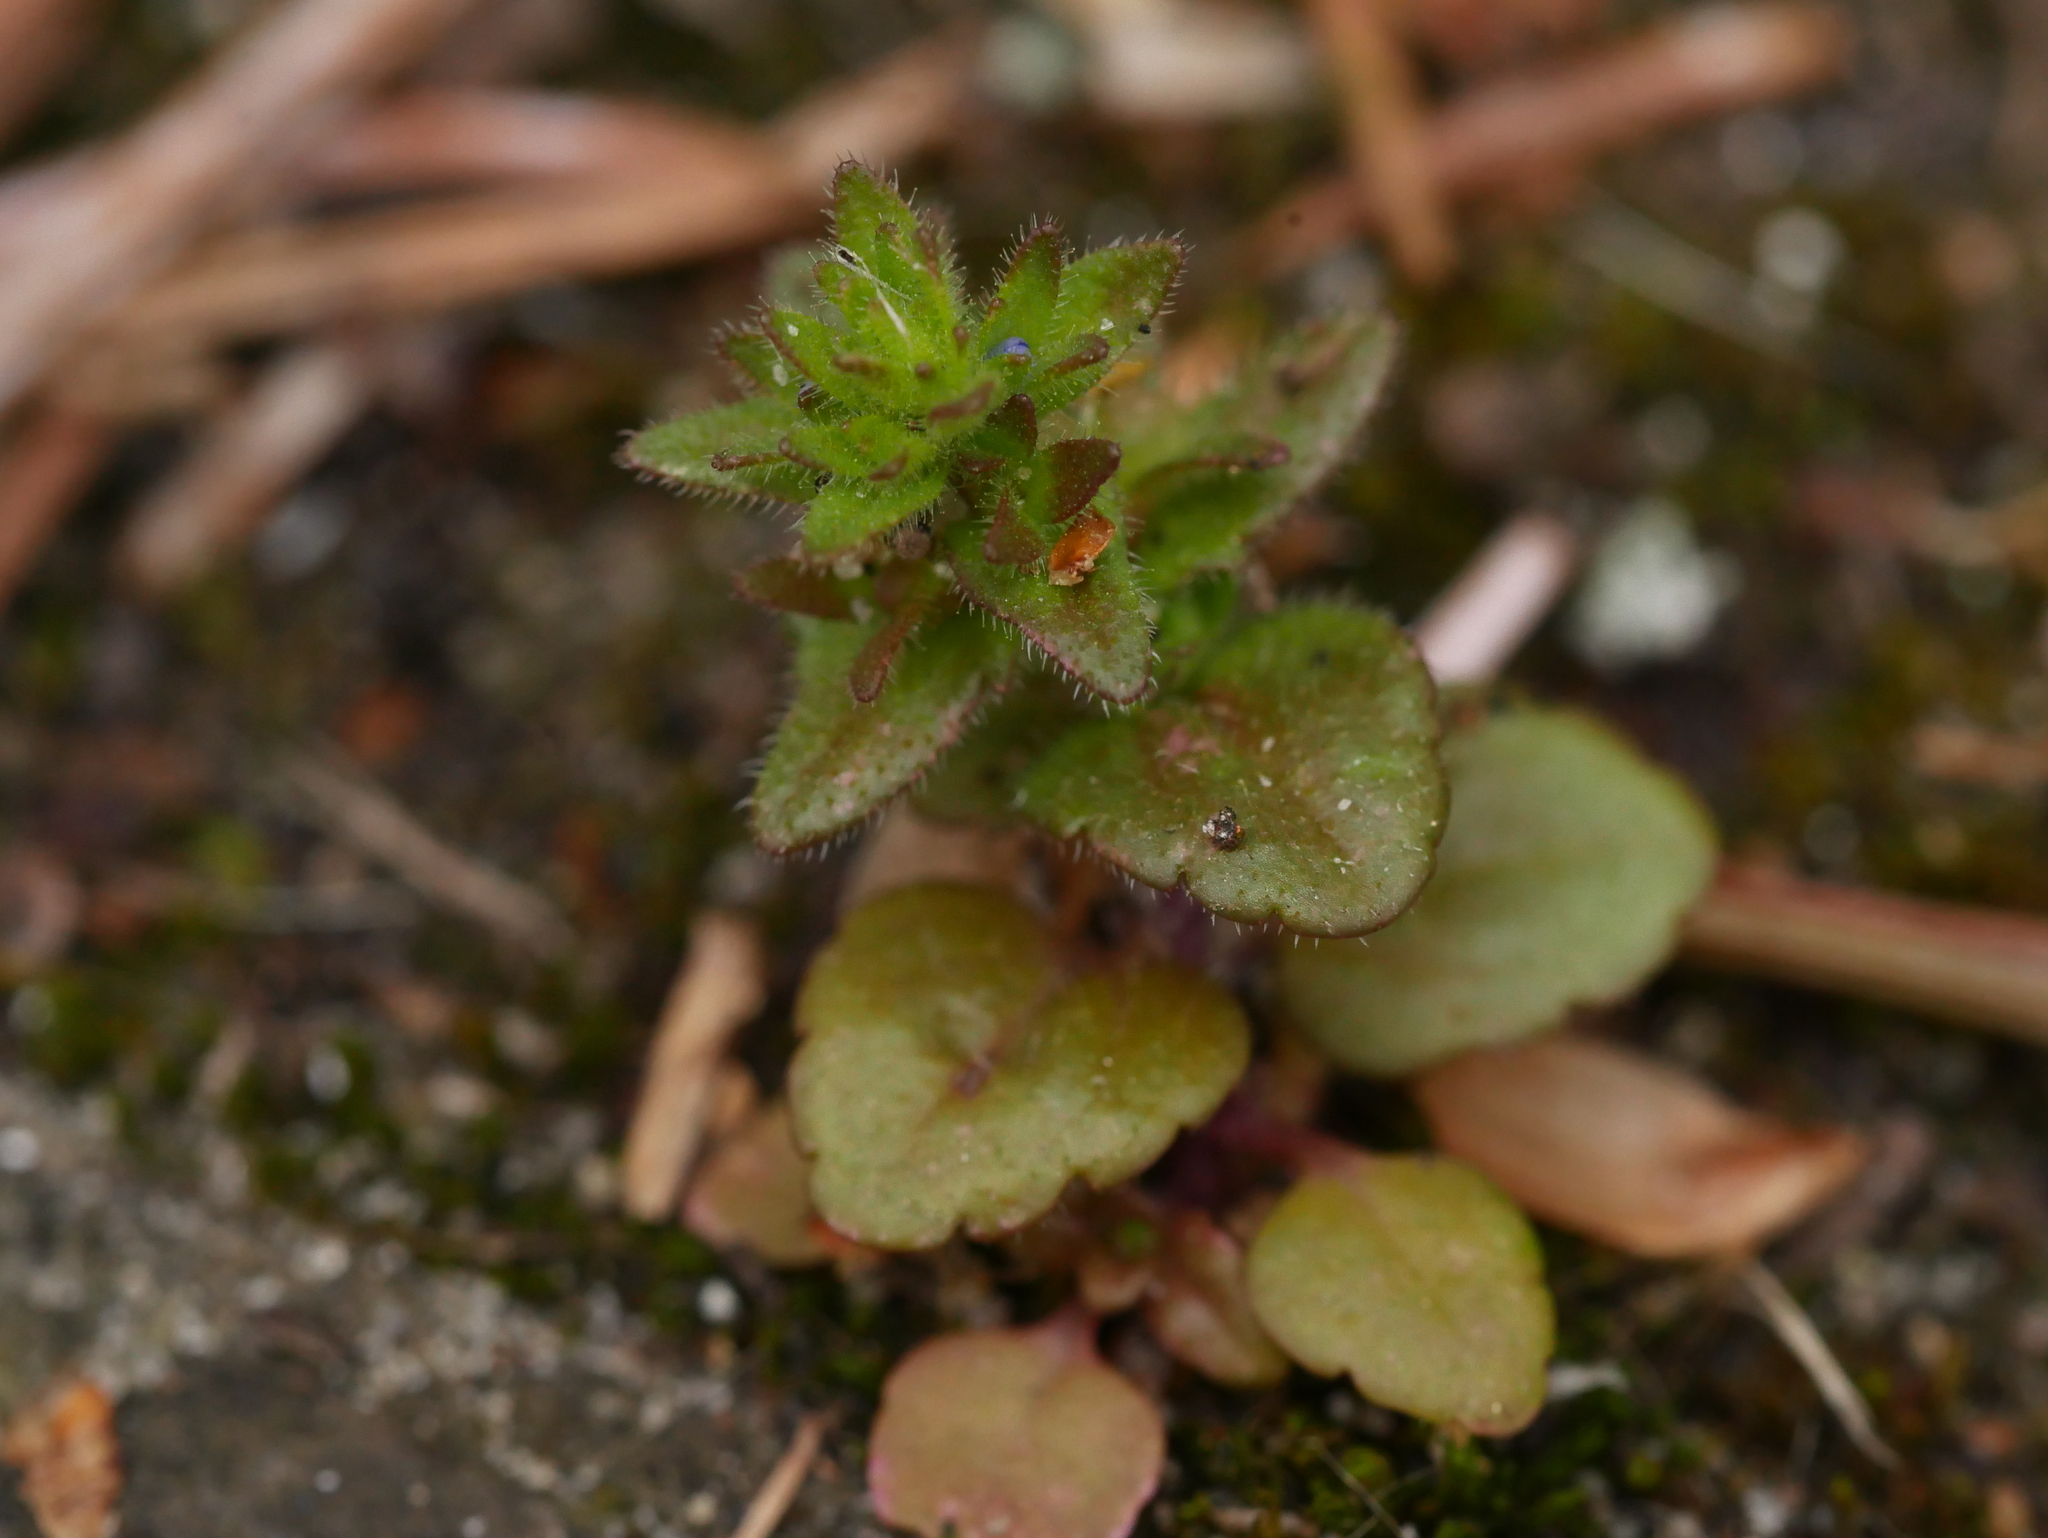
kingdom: Plantae
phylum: Tracheophyta
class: Magnoliopsida
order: Lamiales
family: Plantaginaceae
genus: Veronica
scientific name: Veronica arvensis
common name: Corn speedwell
